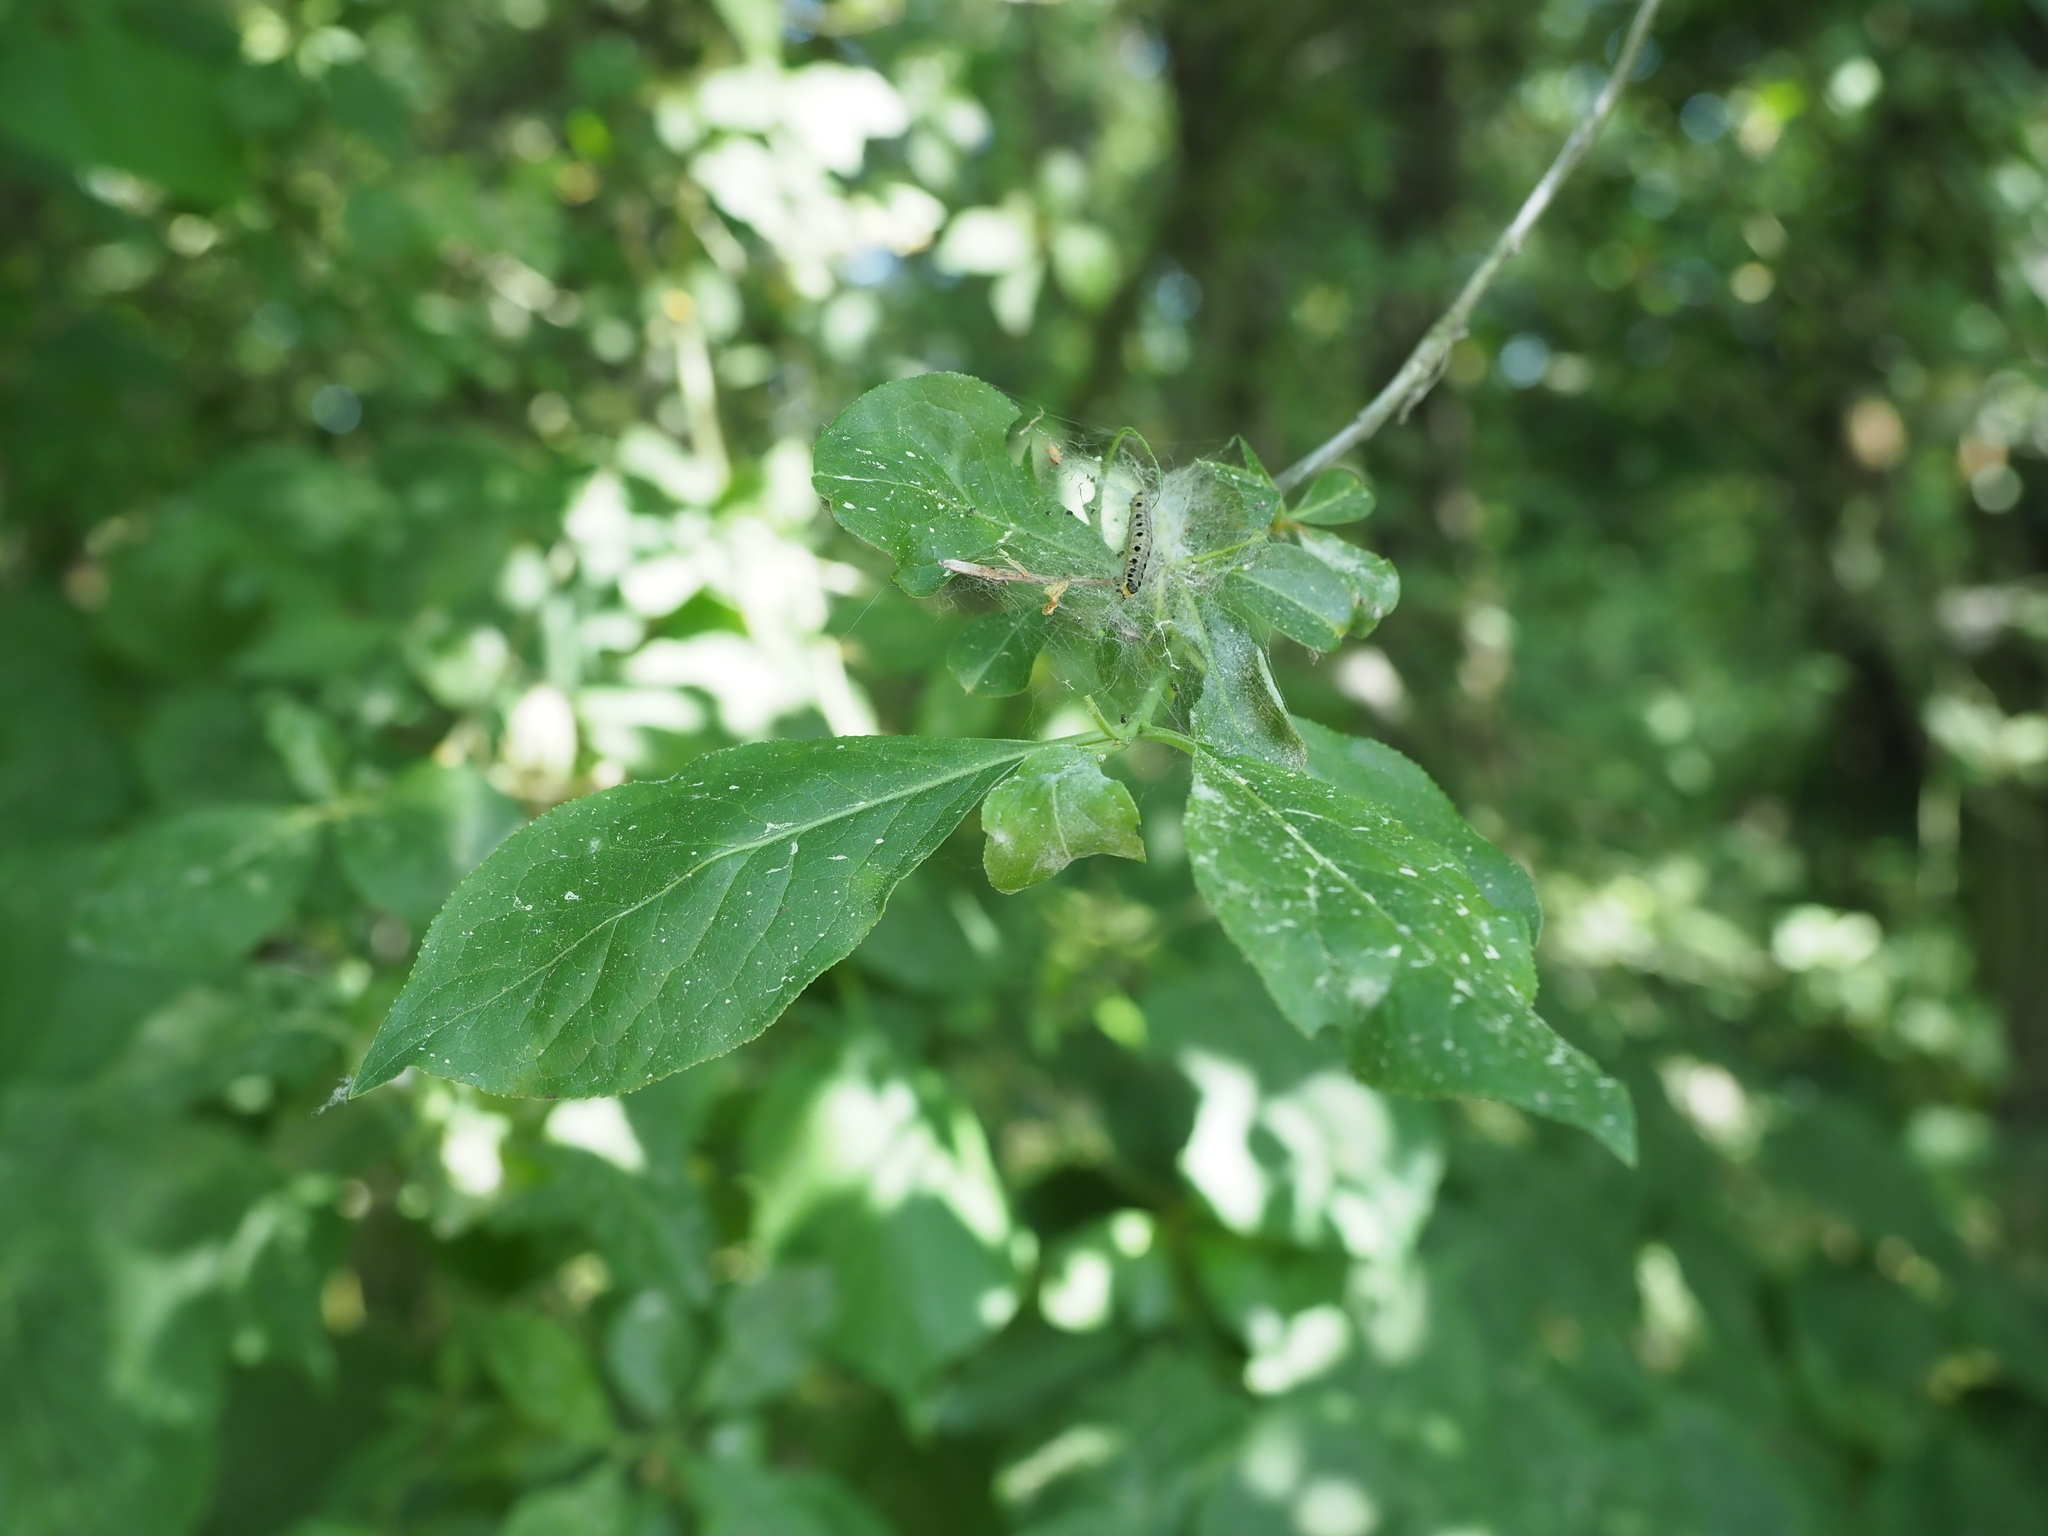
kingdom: Plantae
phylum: Tracheophyta
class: Magnoliopsida
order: Celastrales
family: Celastraceae
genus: Euonymus
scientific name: Euonymus europaeus
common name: Spindle
